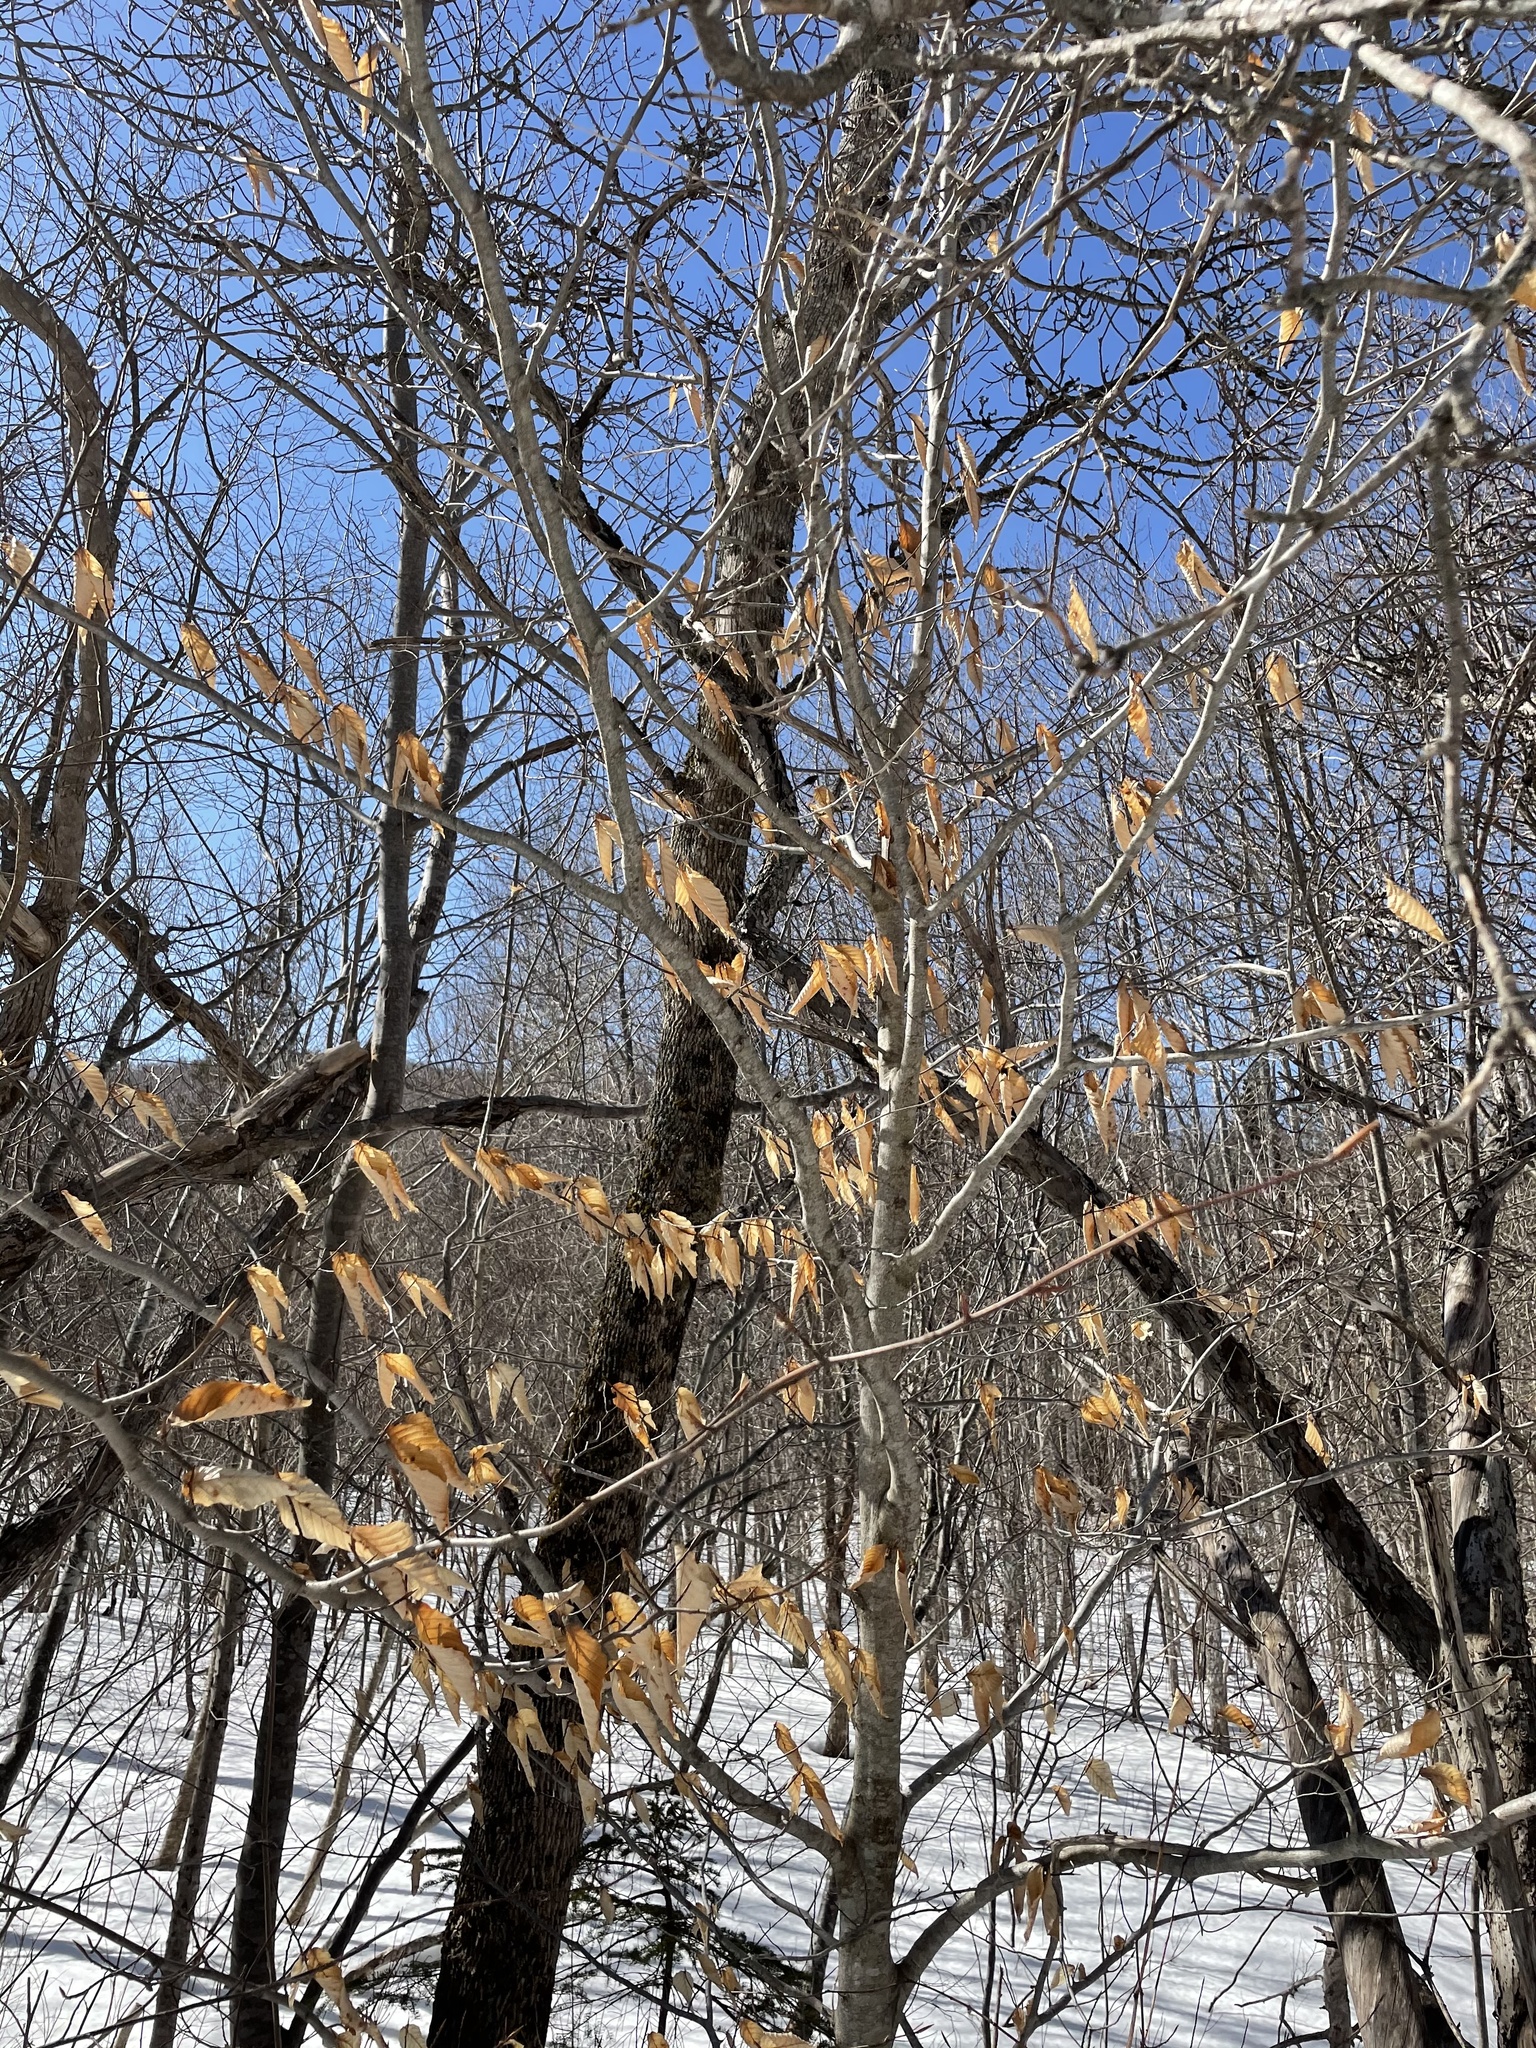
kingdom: Plantae
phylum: Tracheophyta
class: Magnoliopsida
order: Fagales
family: Fagaceae
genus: Fagus
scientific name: Fagus grandifolia
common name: American beech
